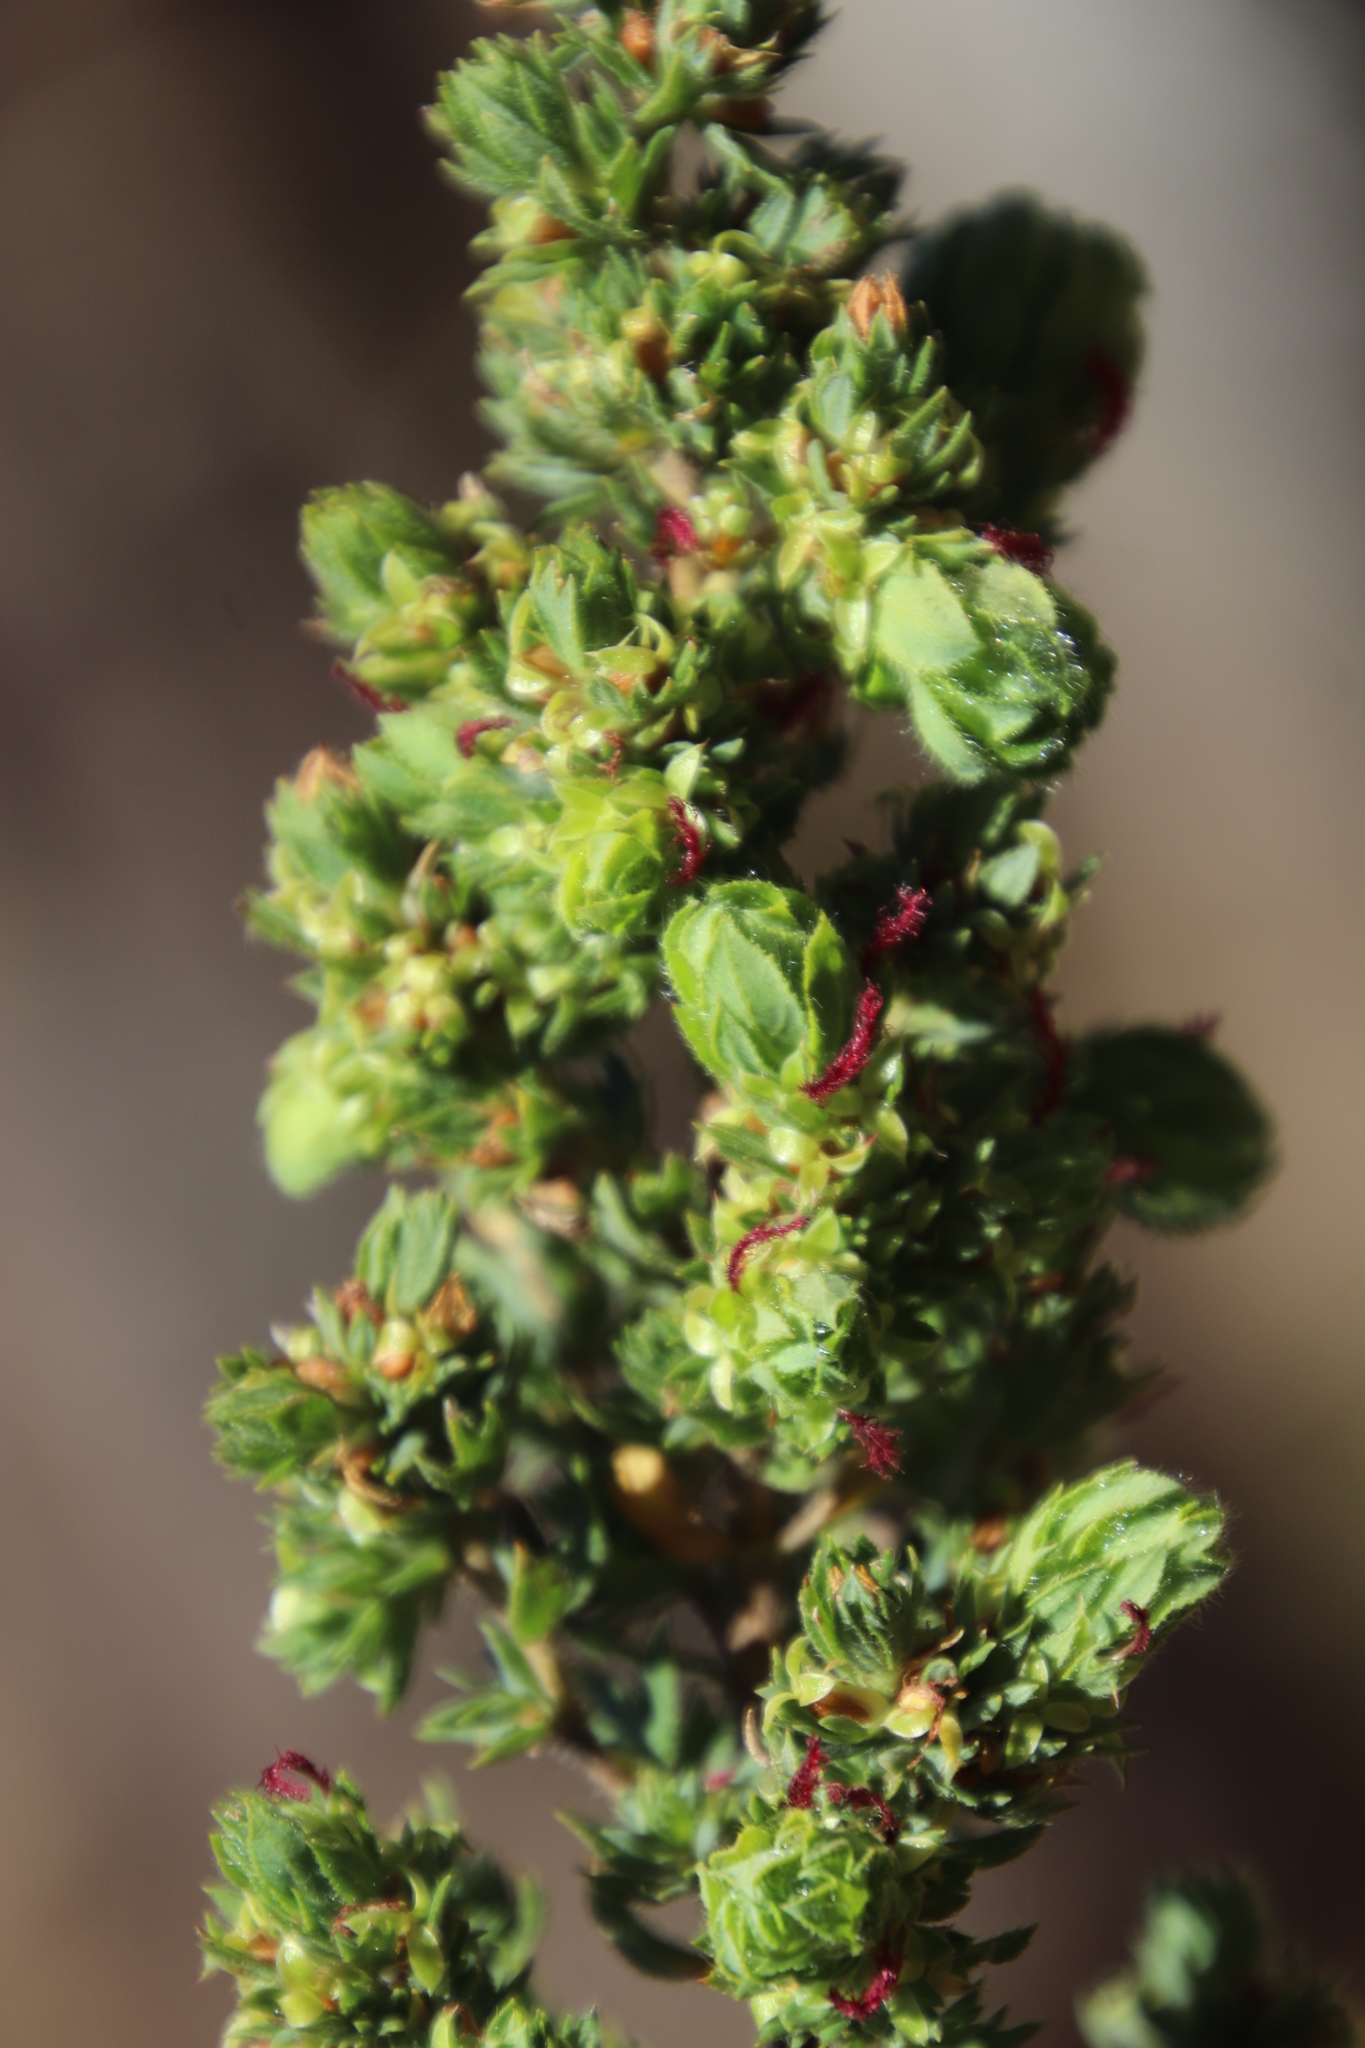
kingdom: Plantae
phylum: Tracheophyta
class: Magnoliopsida
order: Rosales
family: Rosaceae
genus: Cliffortia
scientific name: Cliffortia polygonifolia
